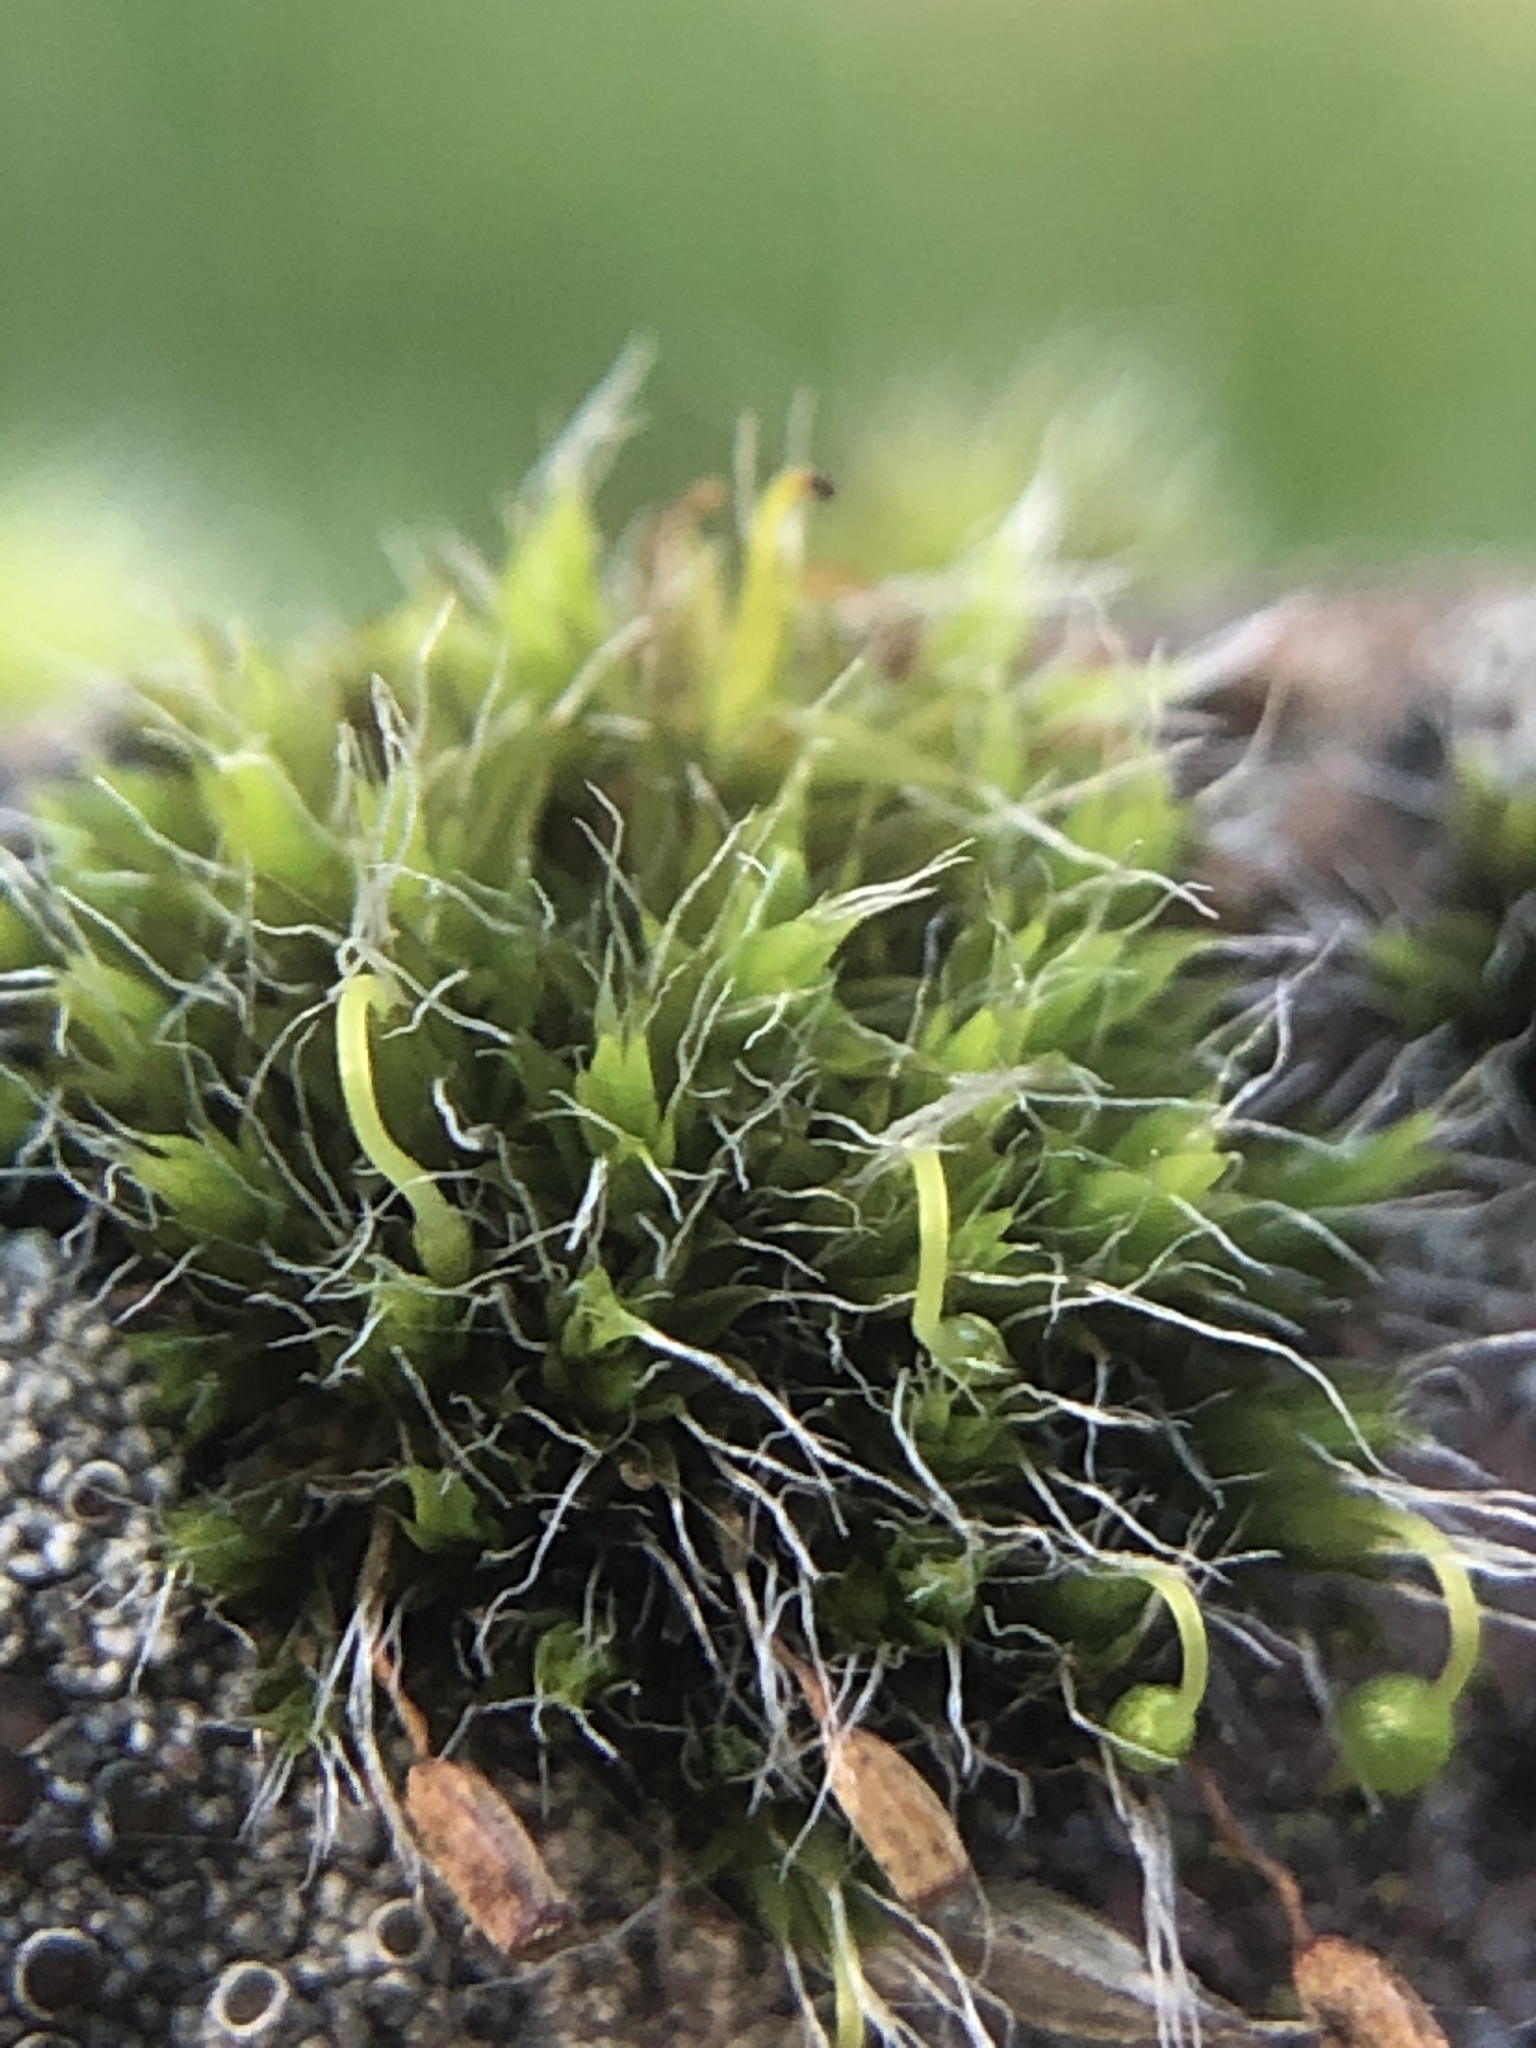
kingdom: Plantae
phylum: Bryophyta
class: Bryopsida
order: Grimmiales
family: Grimmiaceae
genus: Grimmia
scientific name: Grimmia pulvinata
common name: Grey-cushioned grimmia
